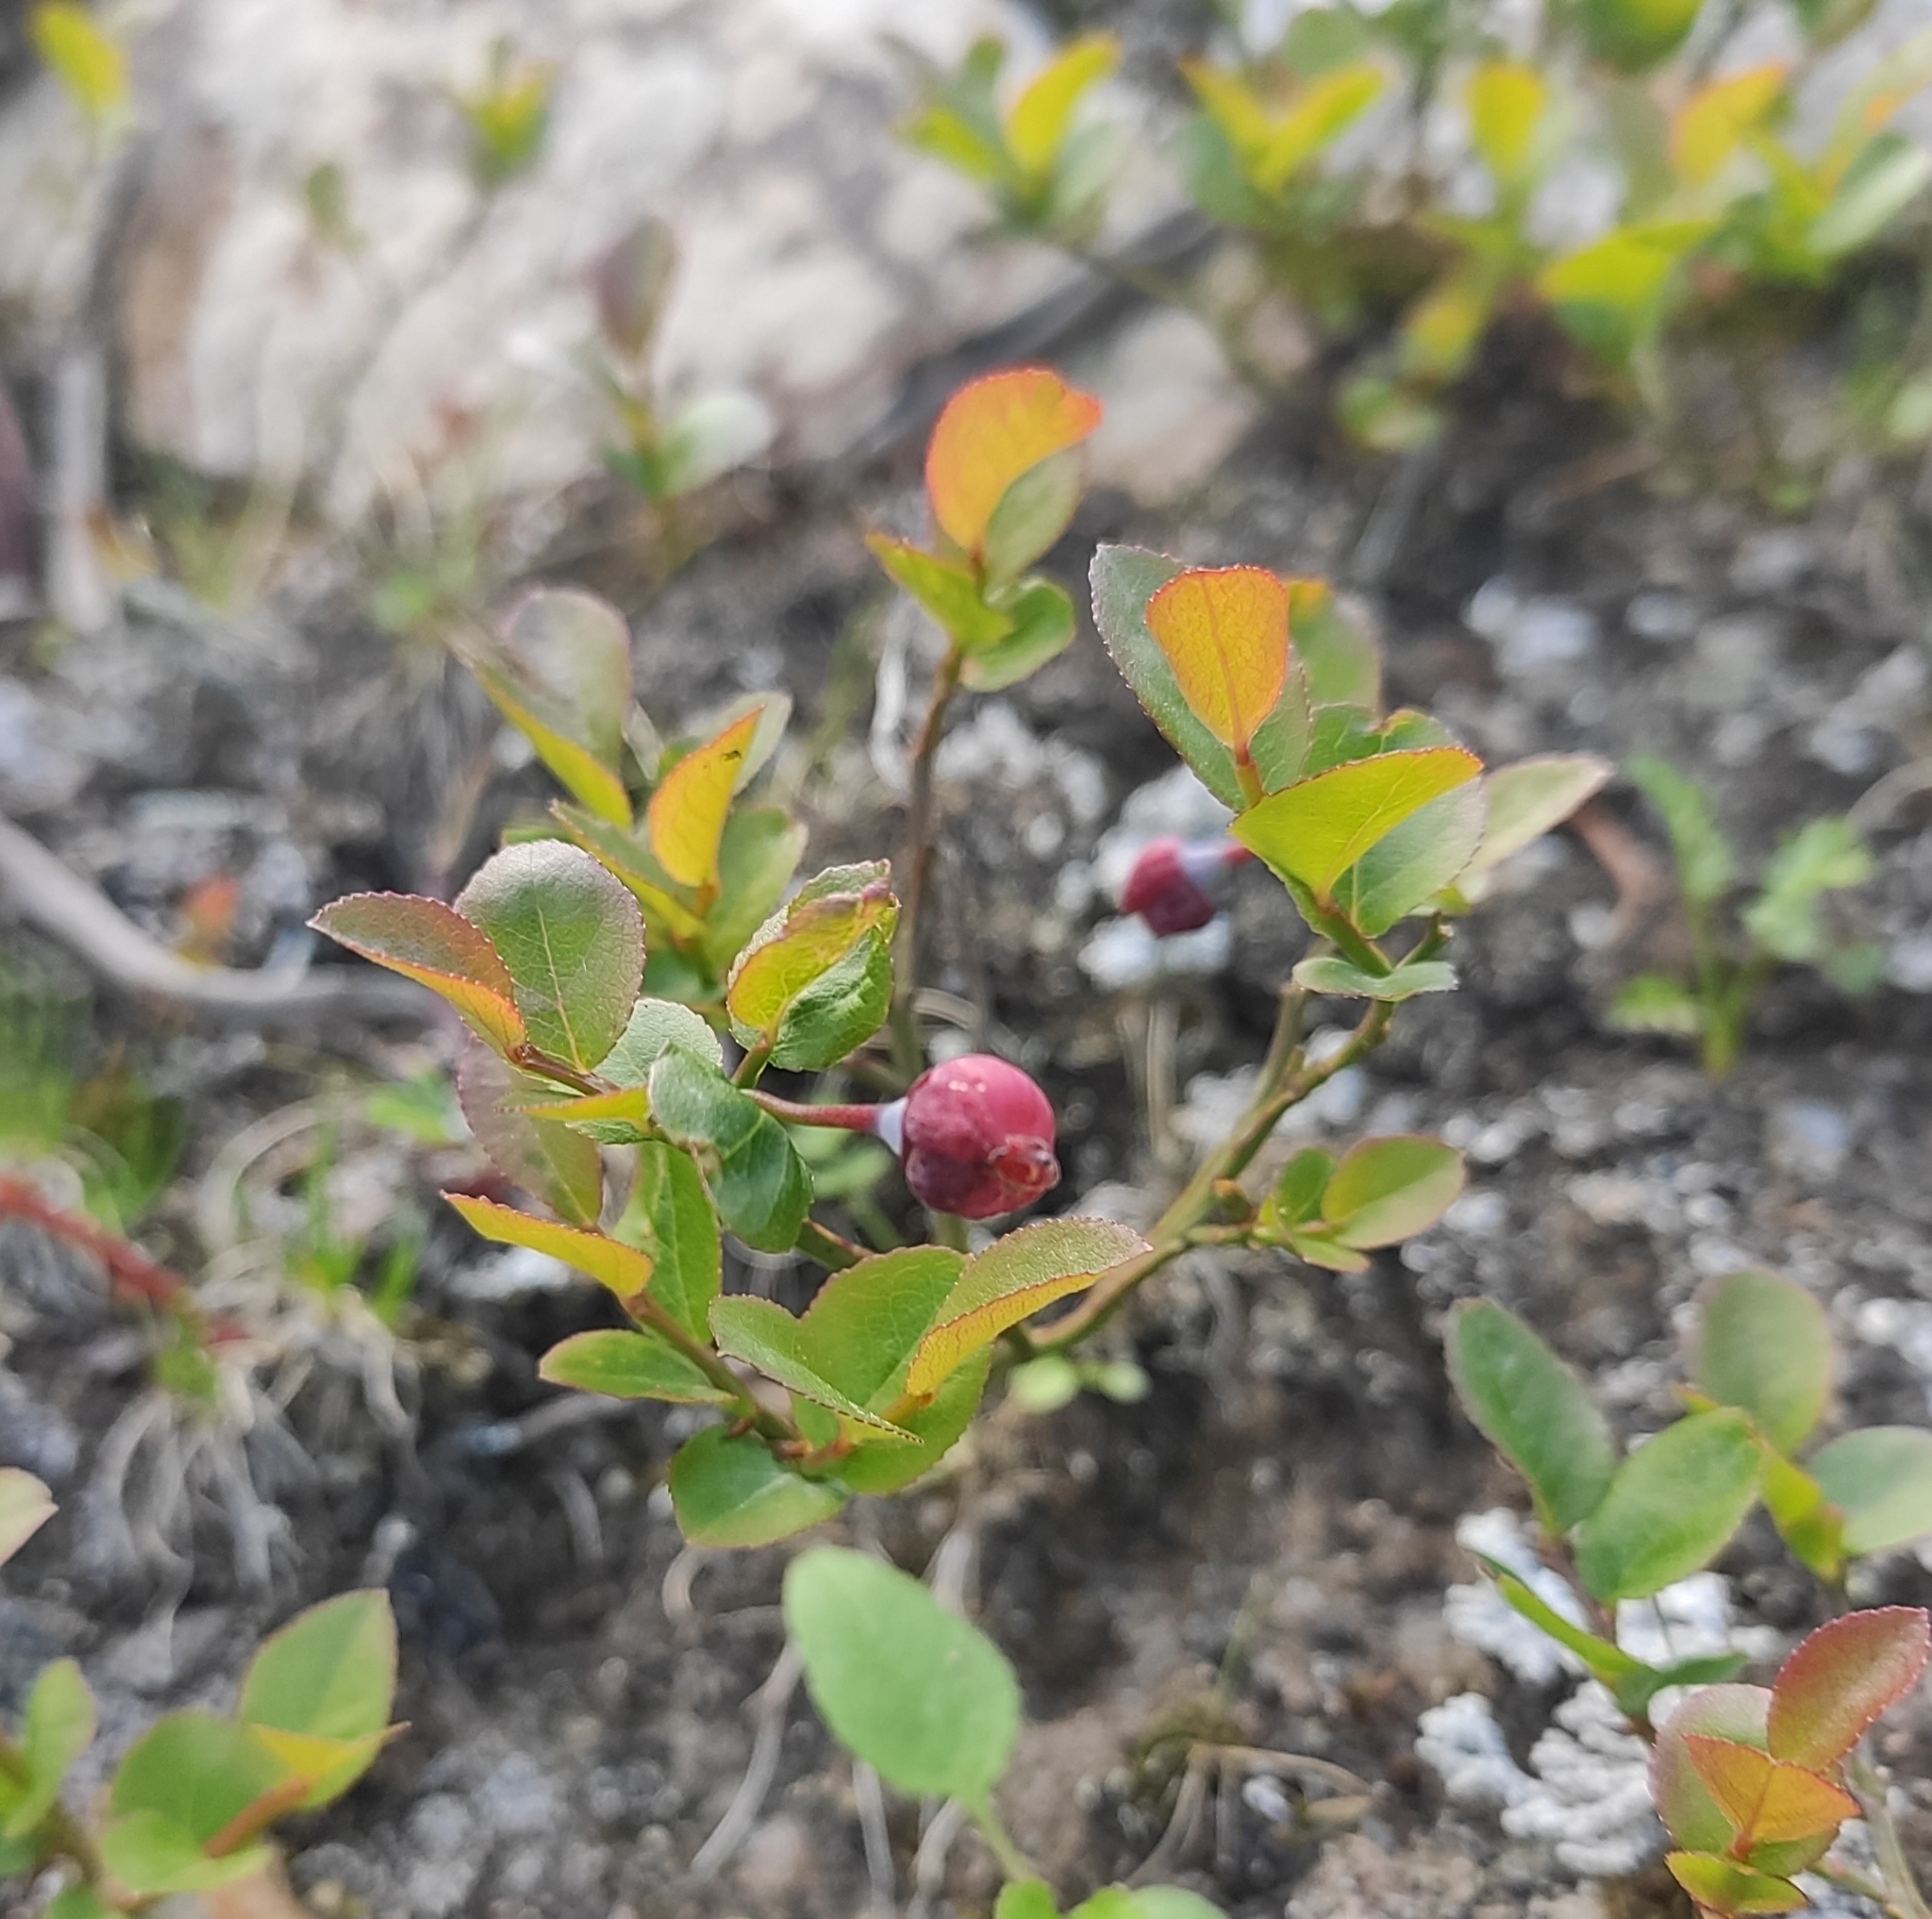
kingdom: Plantae
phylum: Tracheophyta
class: Magnoliopsida
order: Ericales
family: Ericaceae
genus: Vaccinium
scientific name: Vaccinium myrtillus
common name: Bilberry
